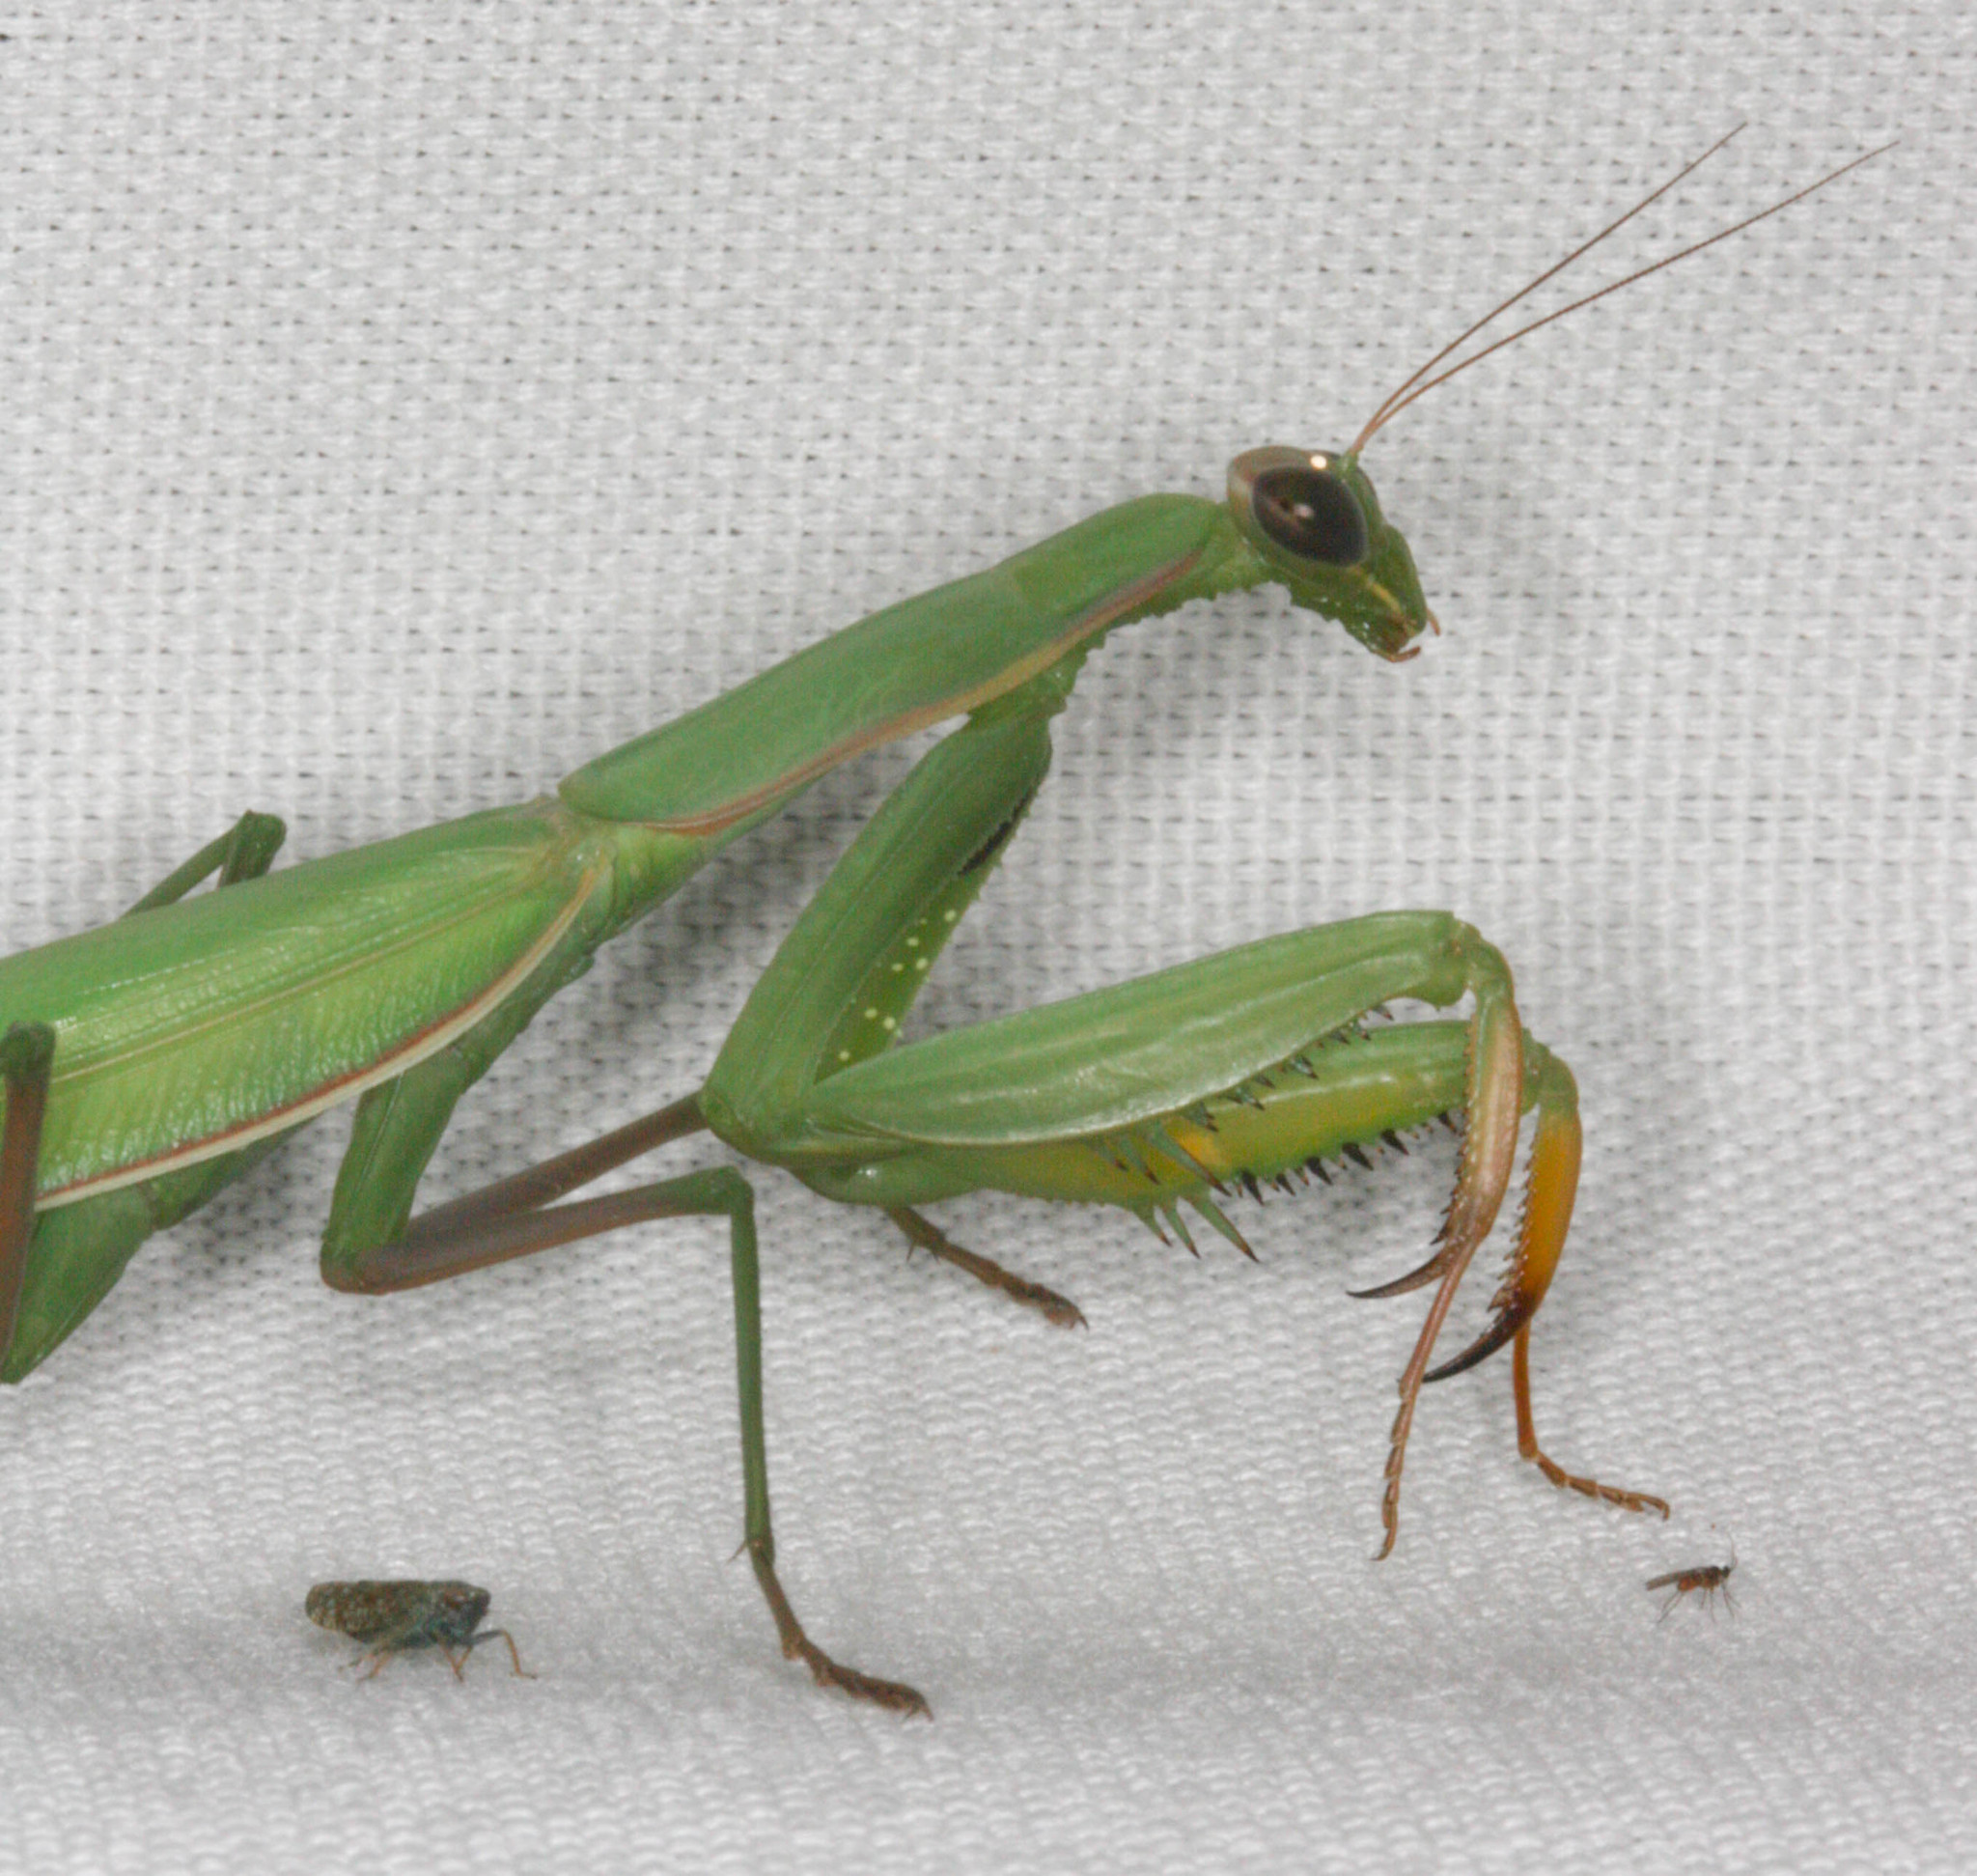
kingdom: Animalia
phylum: Arthropoda
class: Insecta
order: Mantodea
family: Mantidae
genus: Mantis
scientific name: Mantis religiosa
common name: Praying mantis
